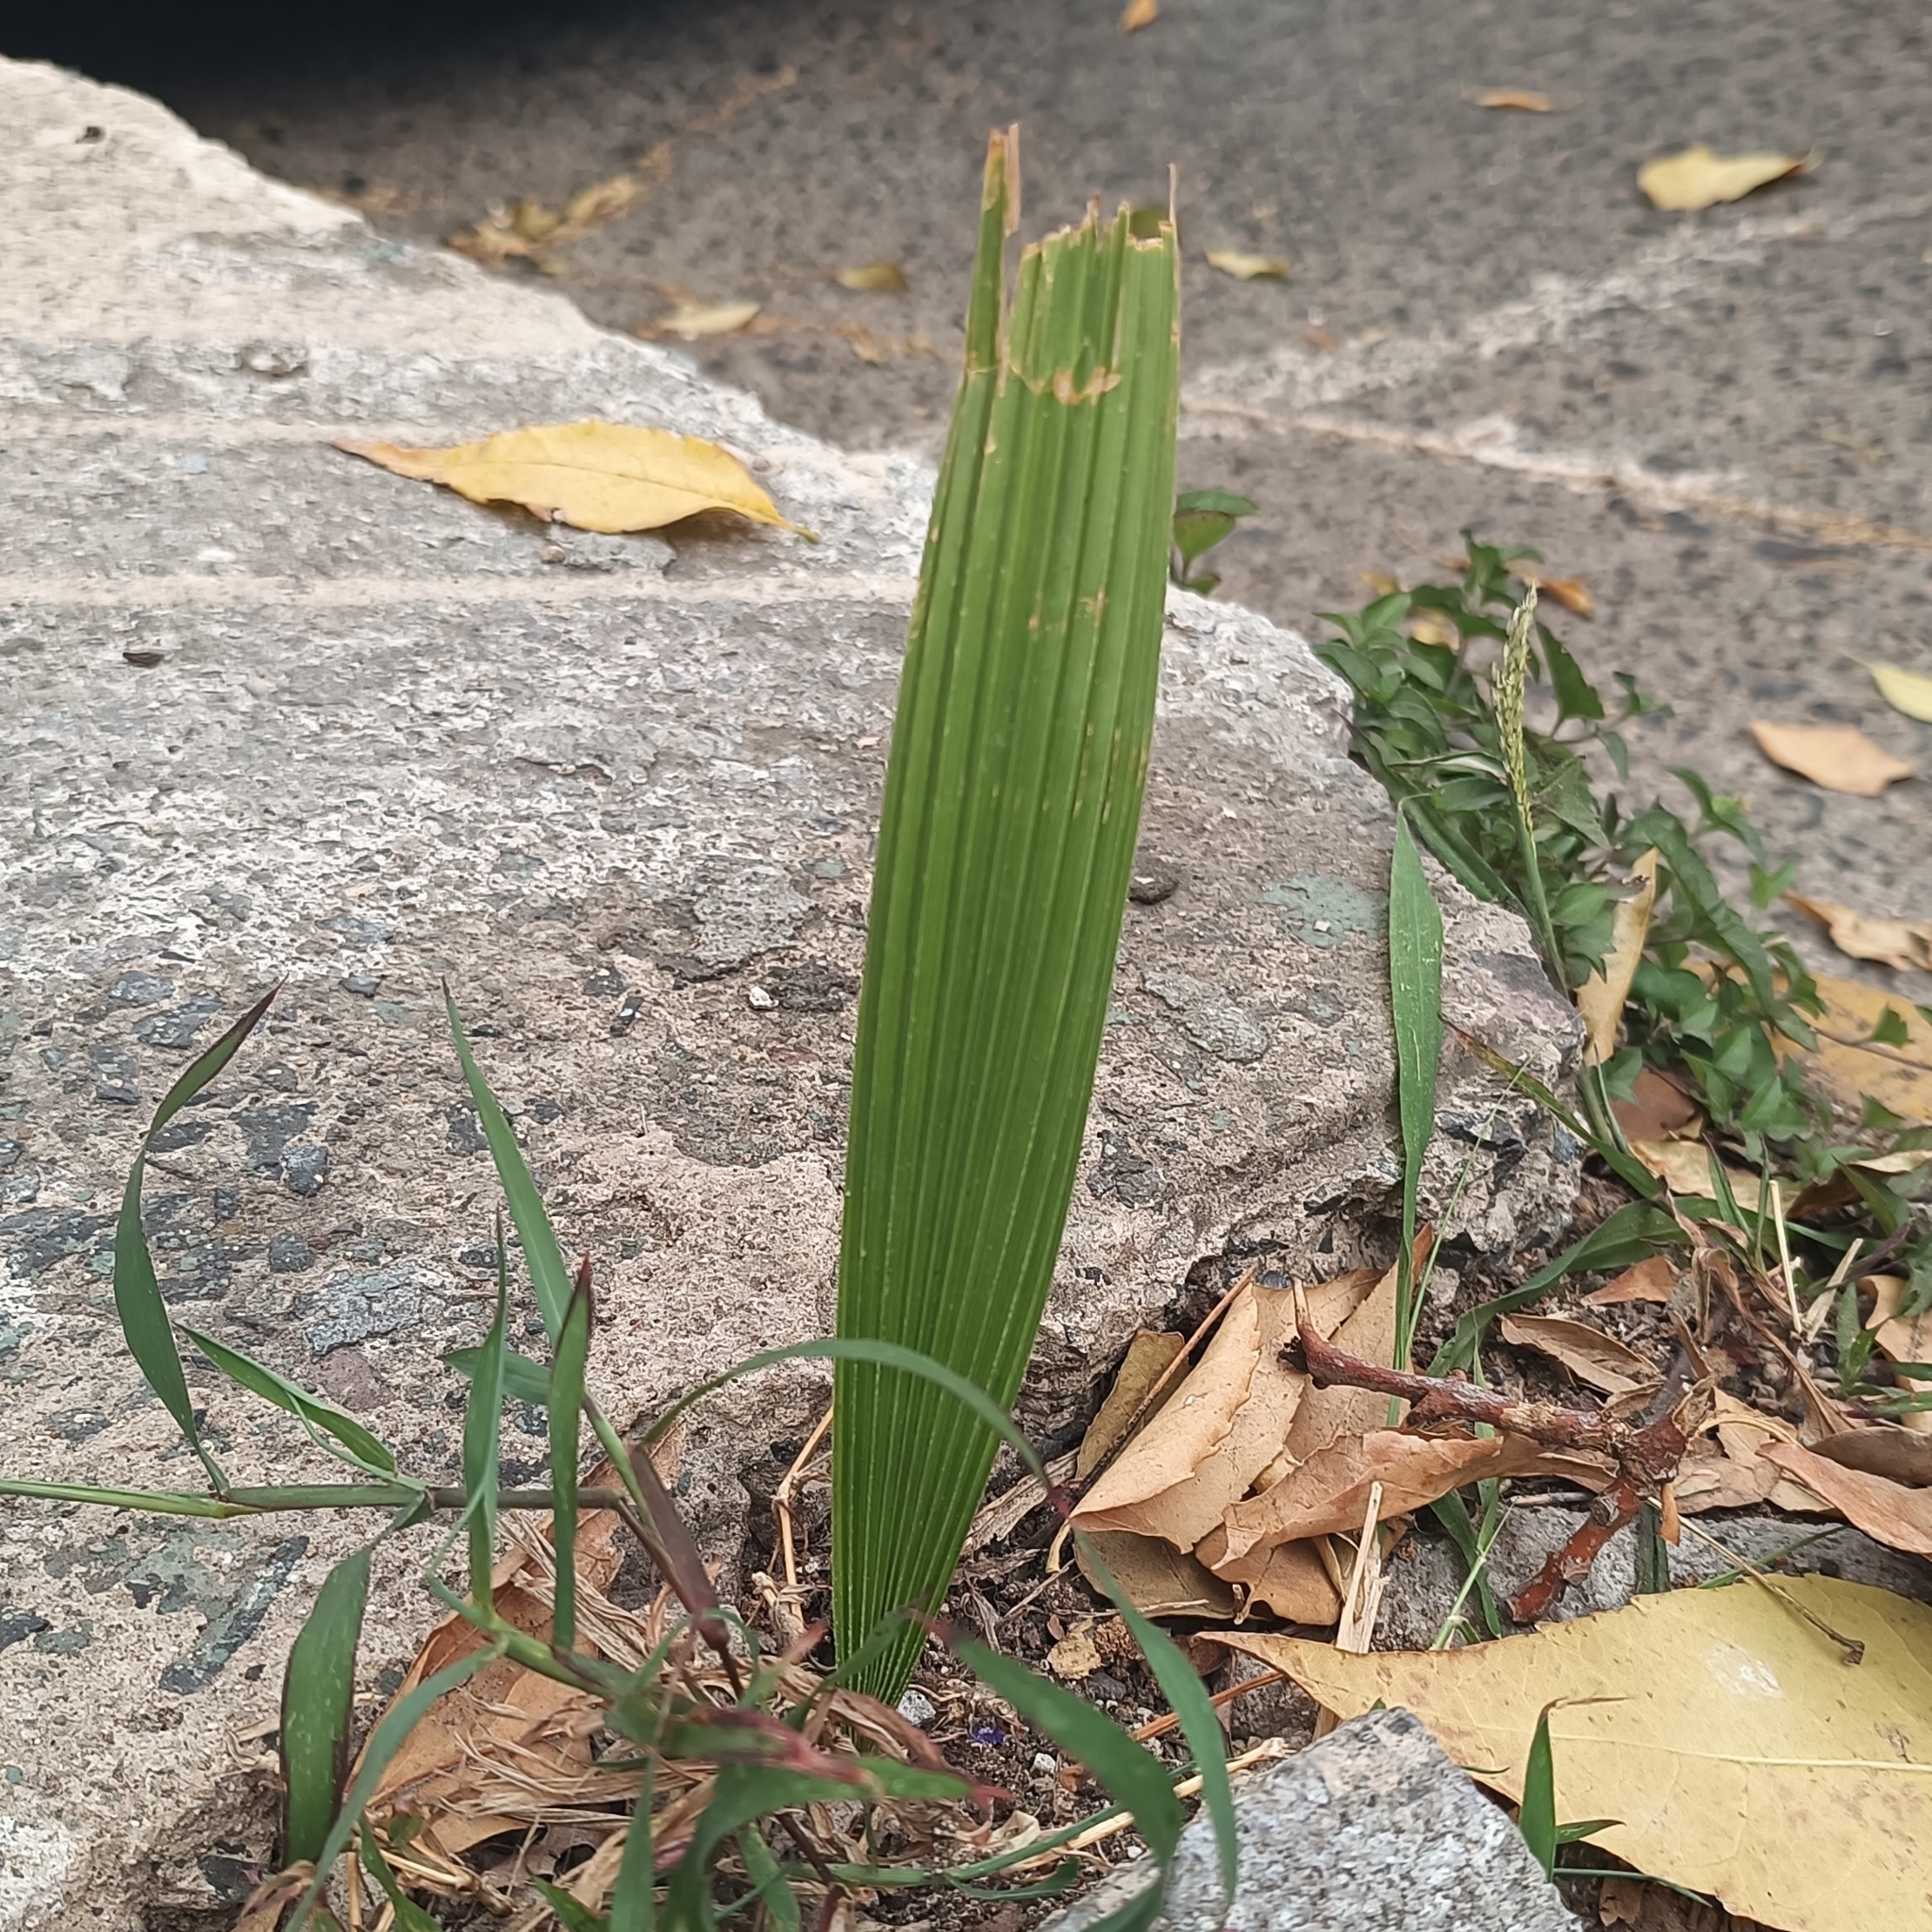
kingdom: Plantae
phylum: Tracheophyta
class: Liliopsida
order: Asparagales
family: Iridaceae
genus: Tigridia
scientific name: Tigridia pavonia
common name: Peacock-flower
